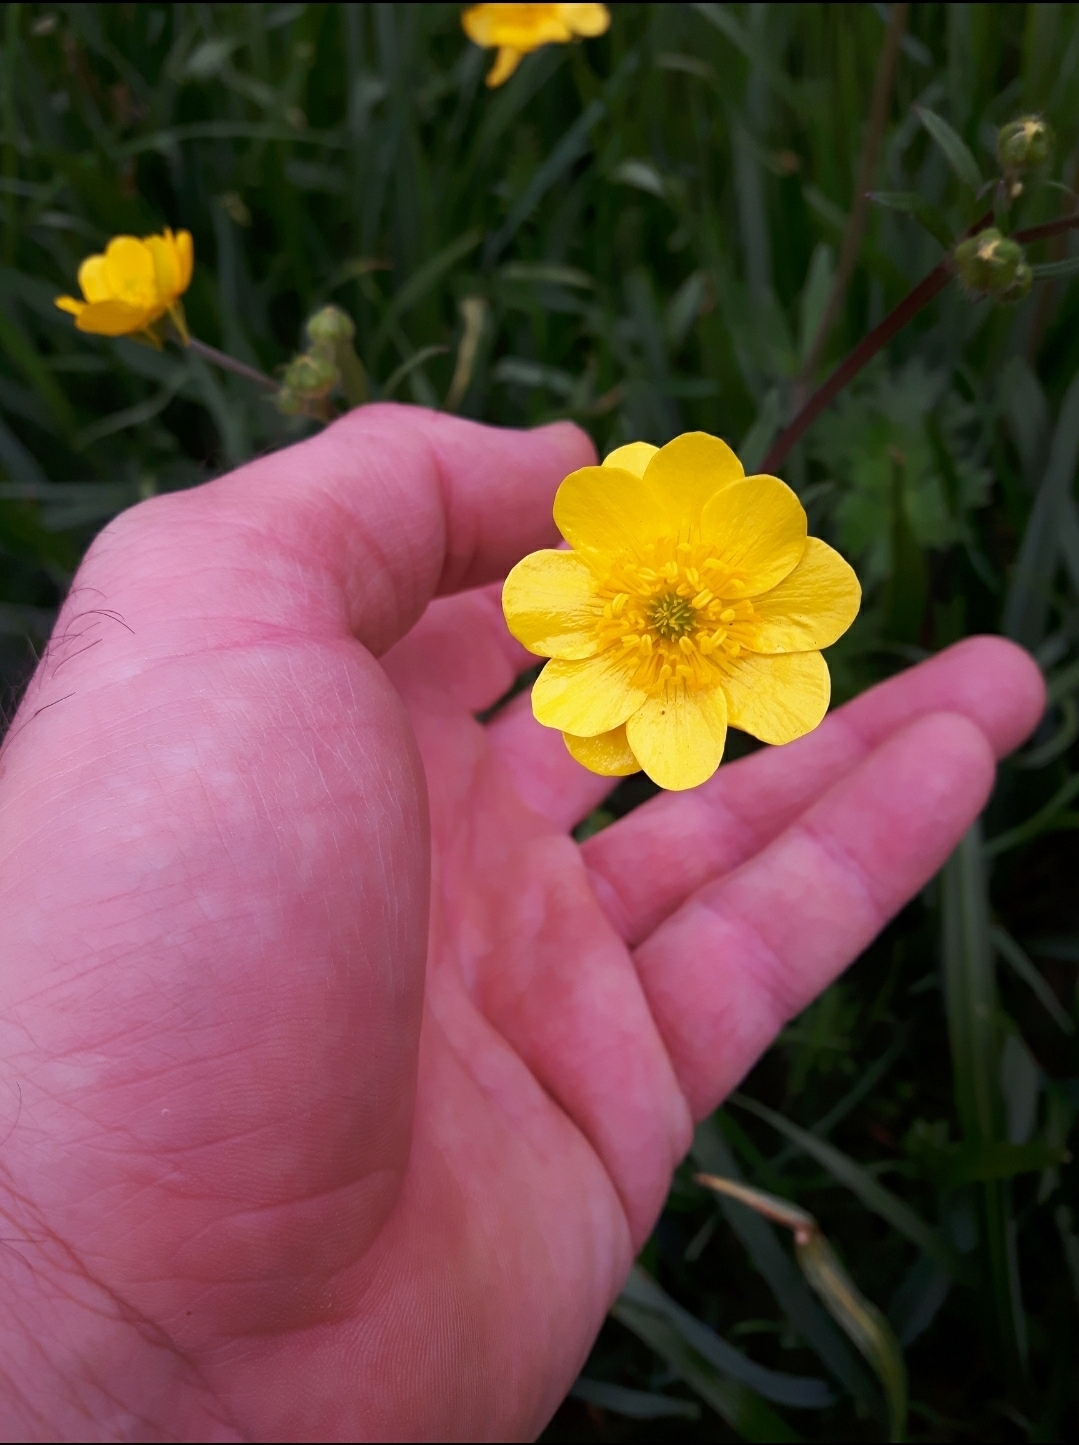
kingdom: Plantae
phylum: Tracheophyta
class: Magnoliopsida
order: Ranunculales
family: Ranunculaceae
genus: Ranunculus
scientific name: Ranunculus californicus
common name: California buttercup
